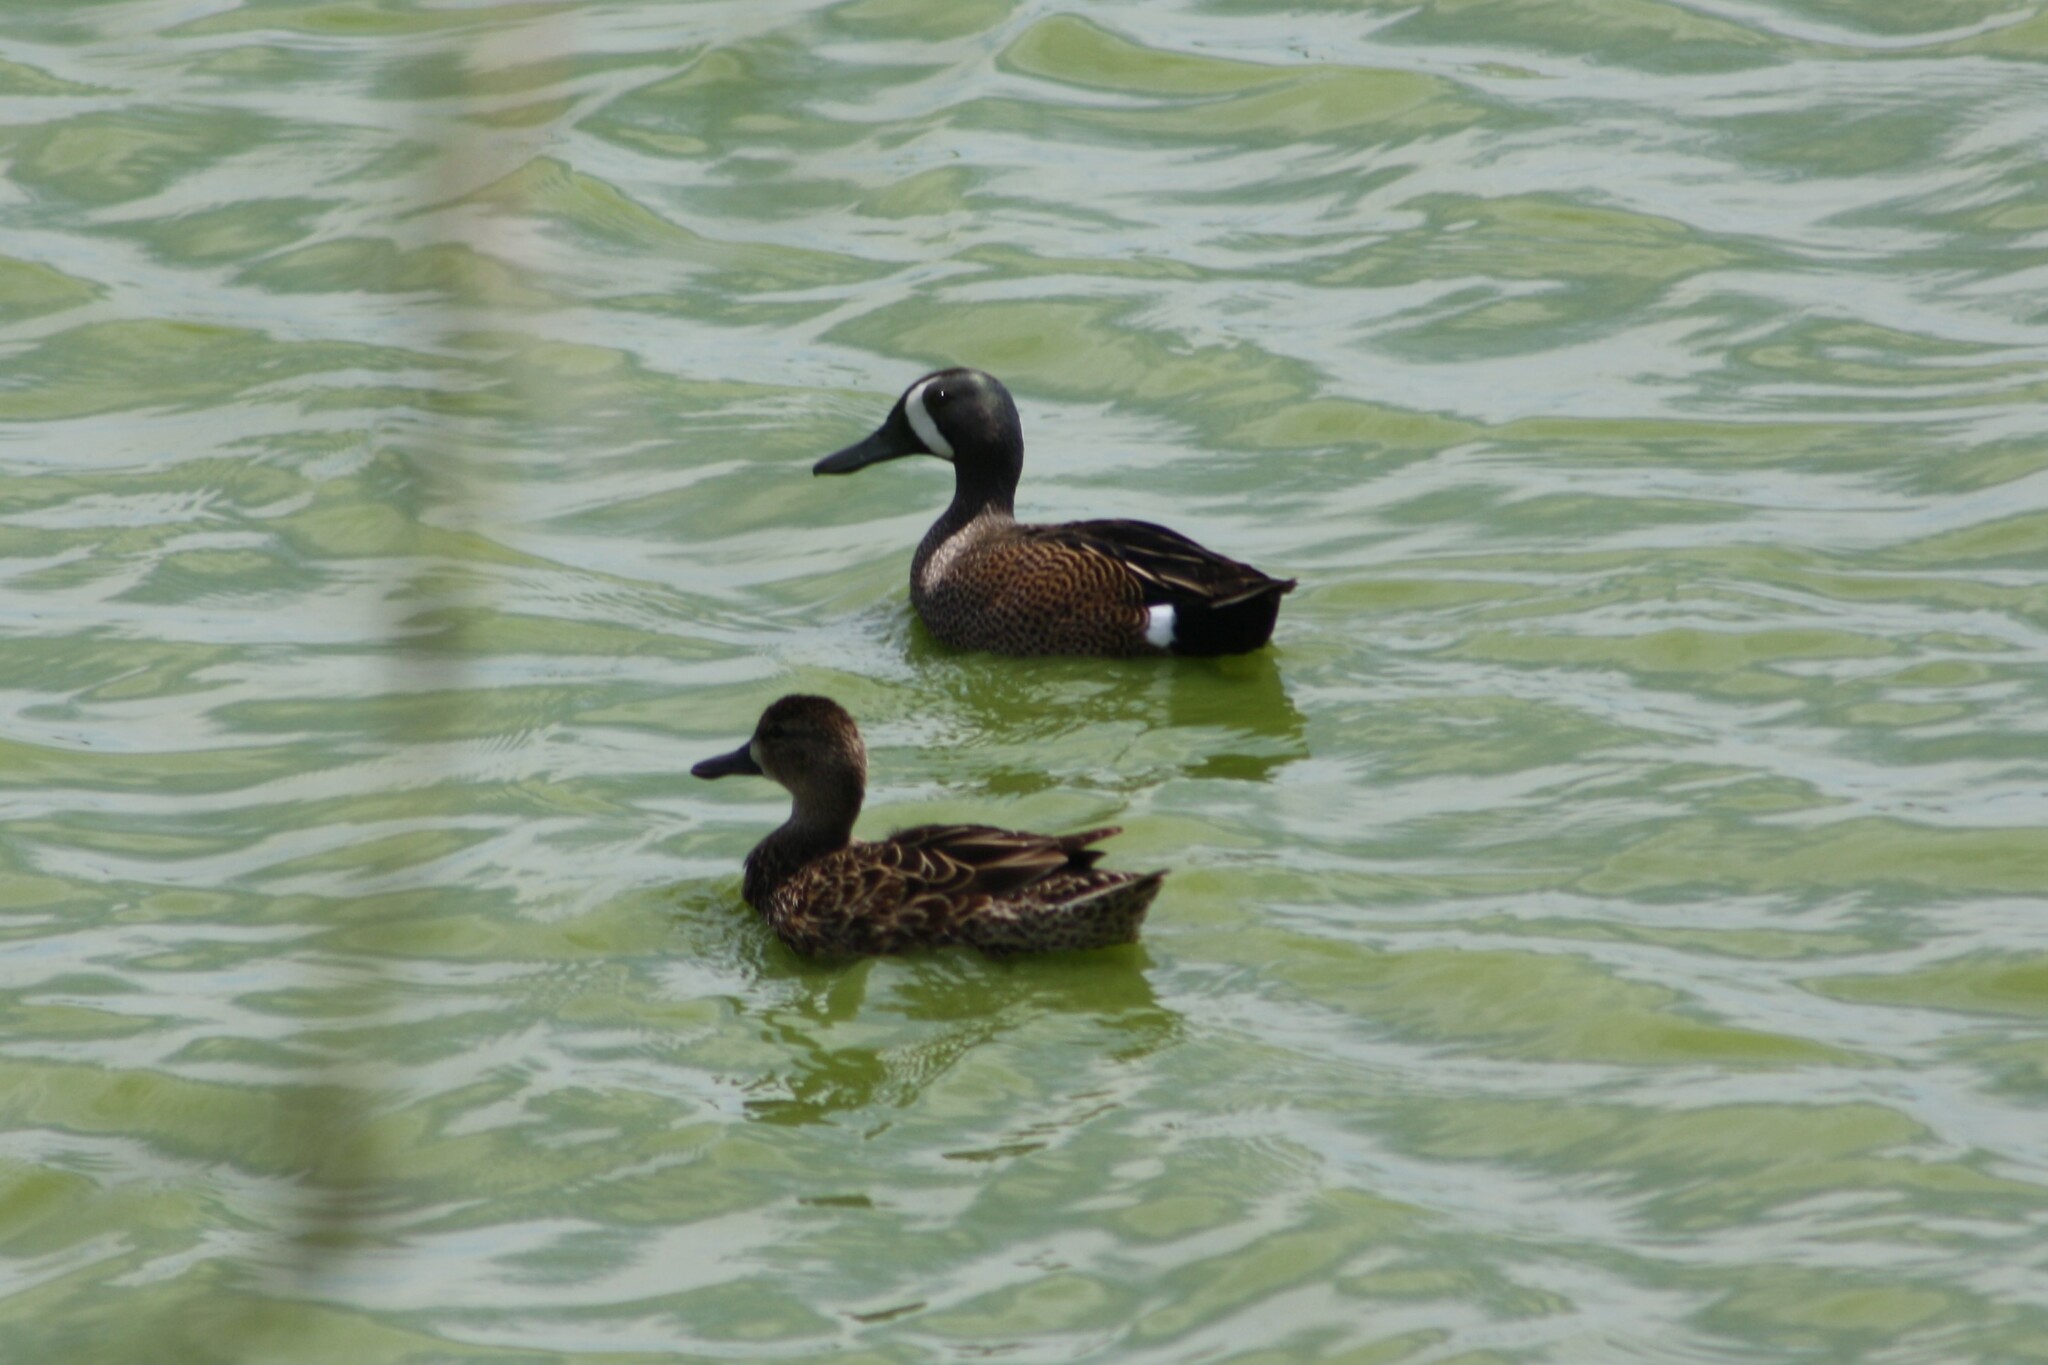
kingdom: Animalia
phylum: Chordata
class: Aves
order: Anseriformes
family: Anatidae
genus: Spatula
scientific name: Spatula discors
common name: Blue-winged teal
